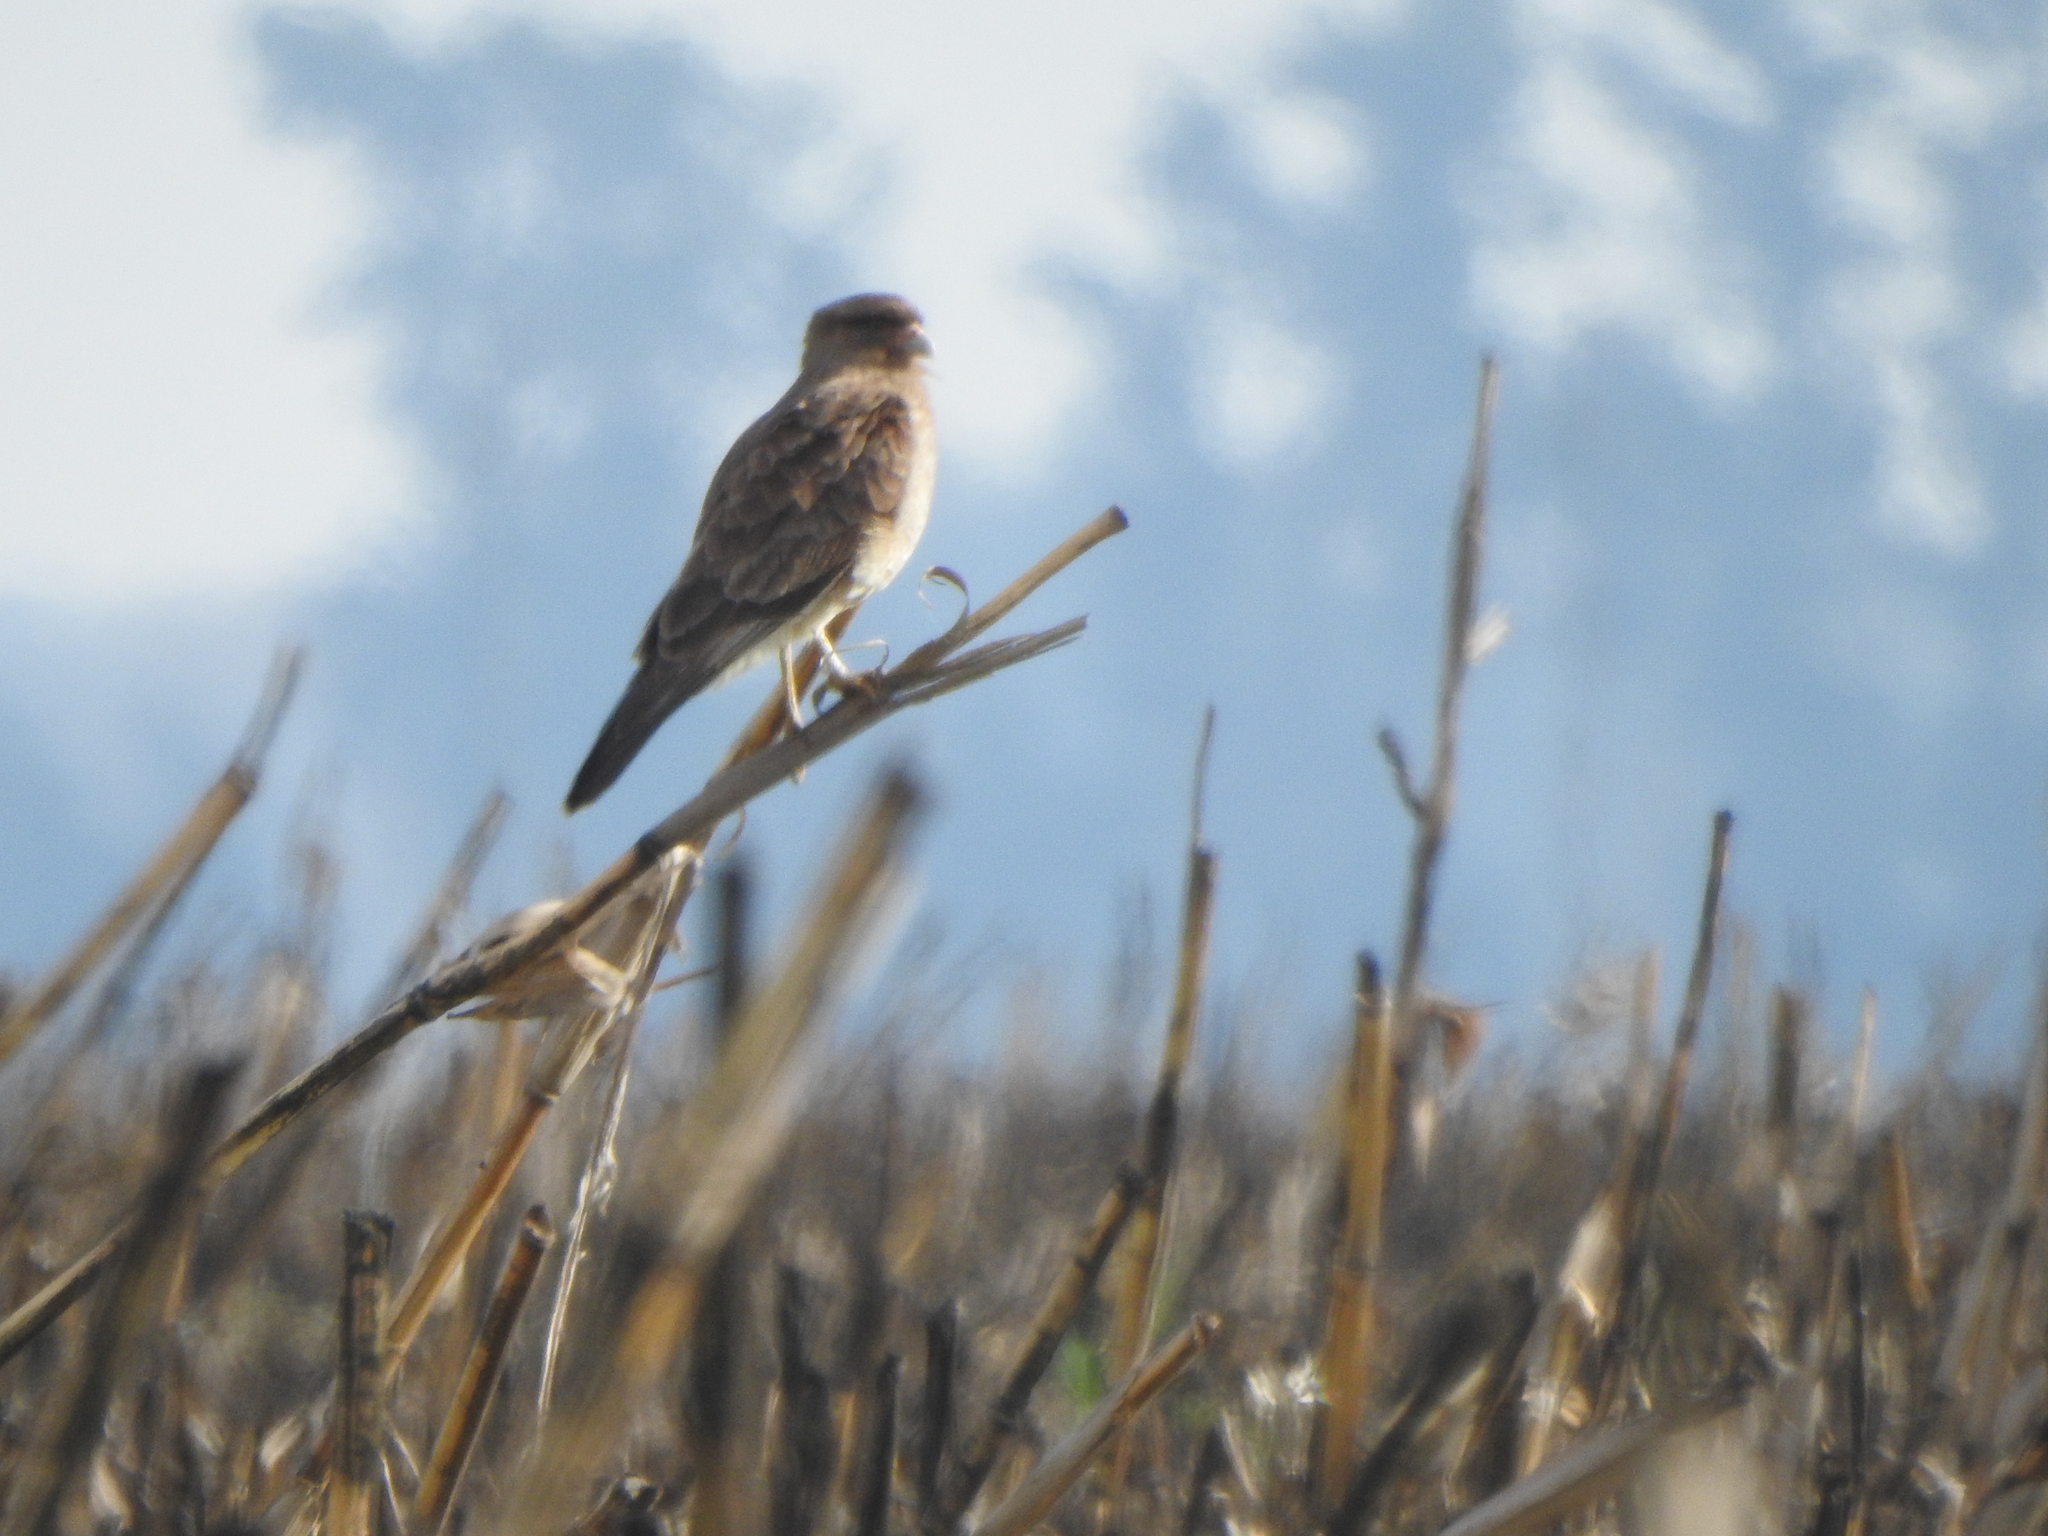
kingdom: Animalia
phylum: Chordata
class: Aves
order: Falconiformes
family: Falconidae
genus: Daptrius
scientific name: Daptrius
